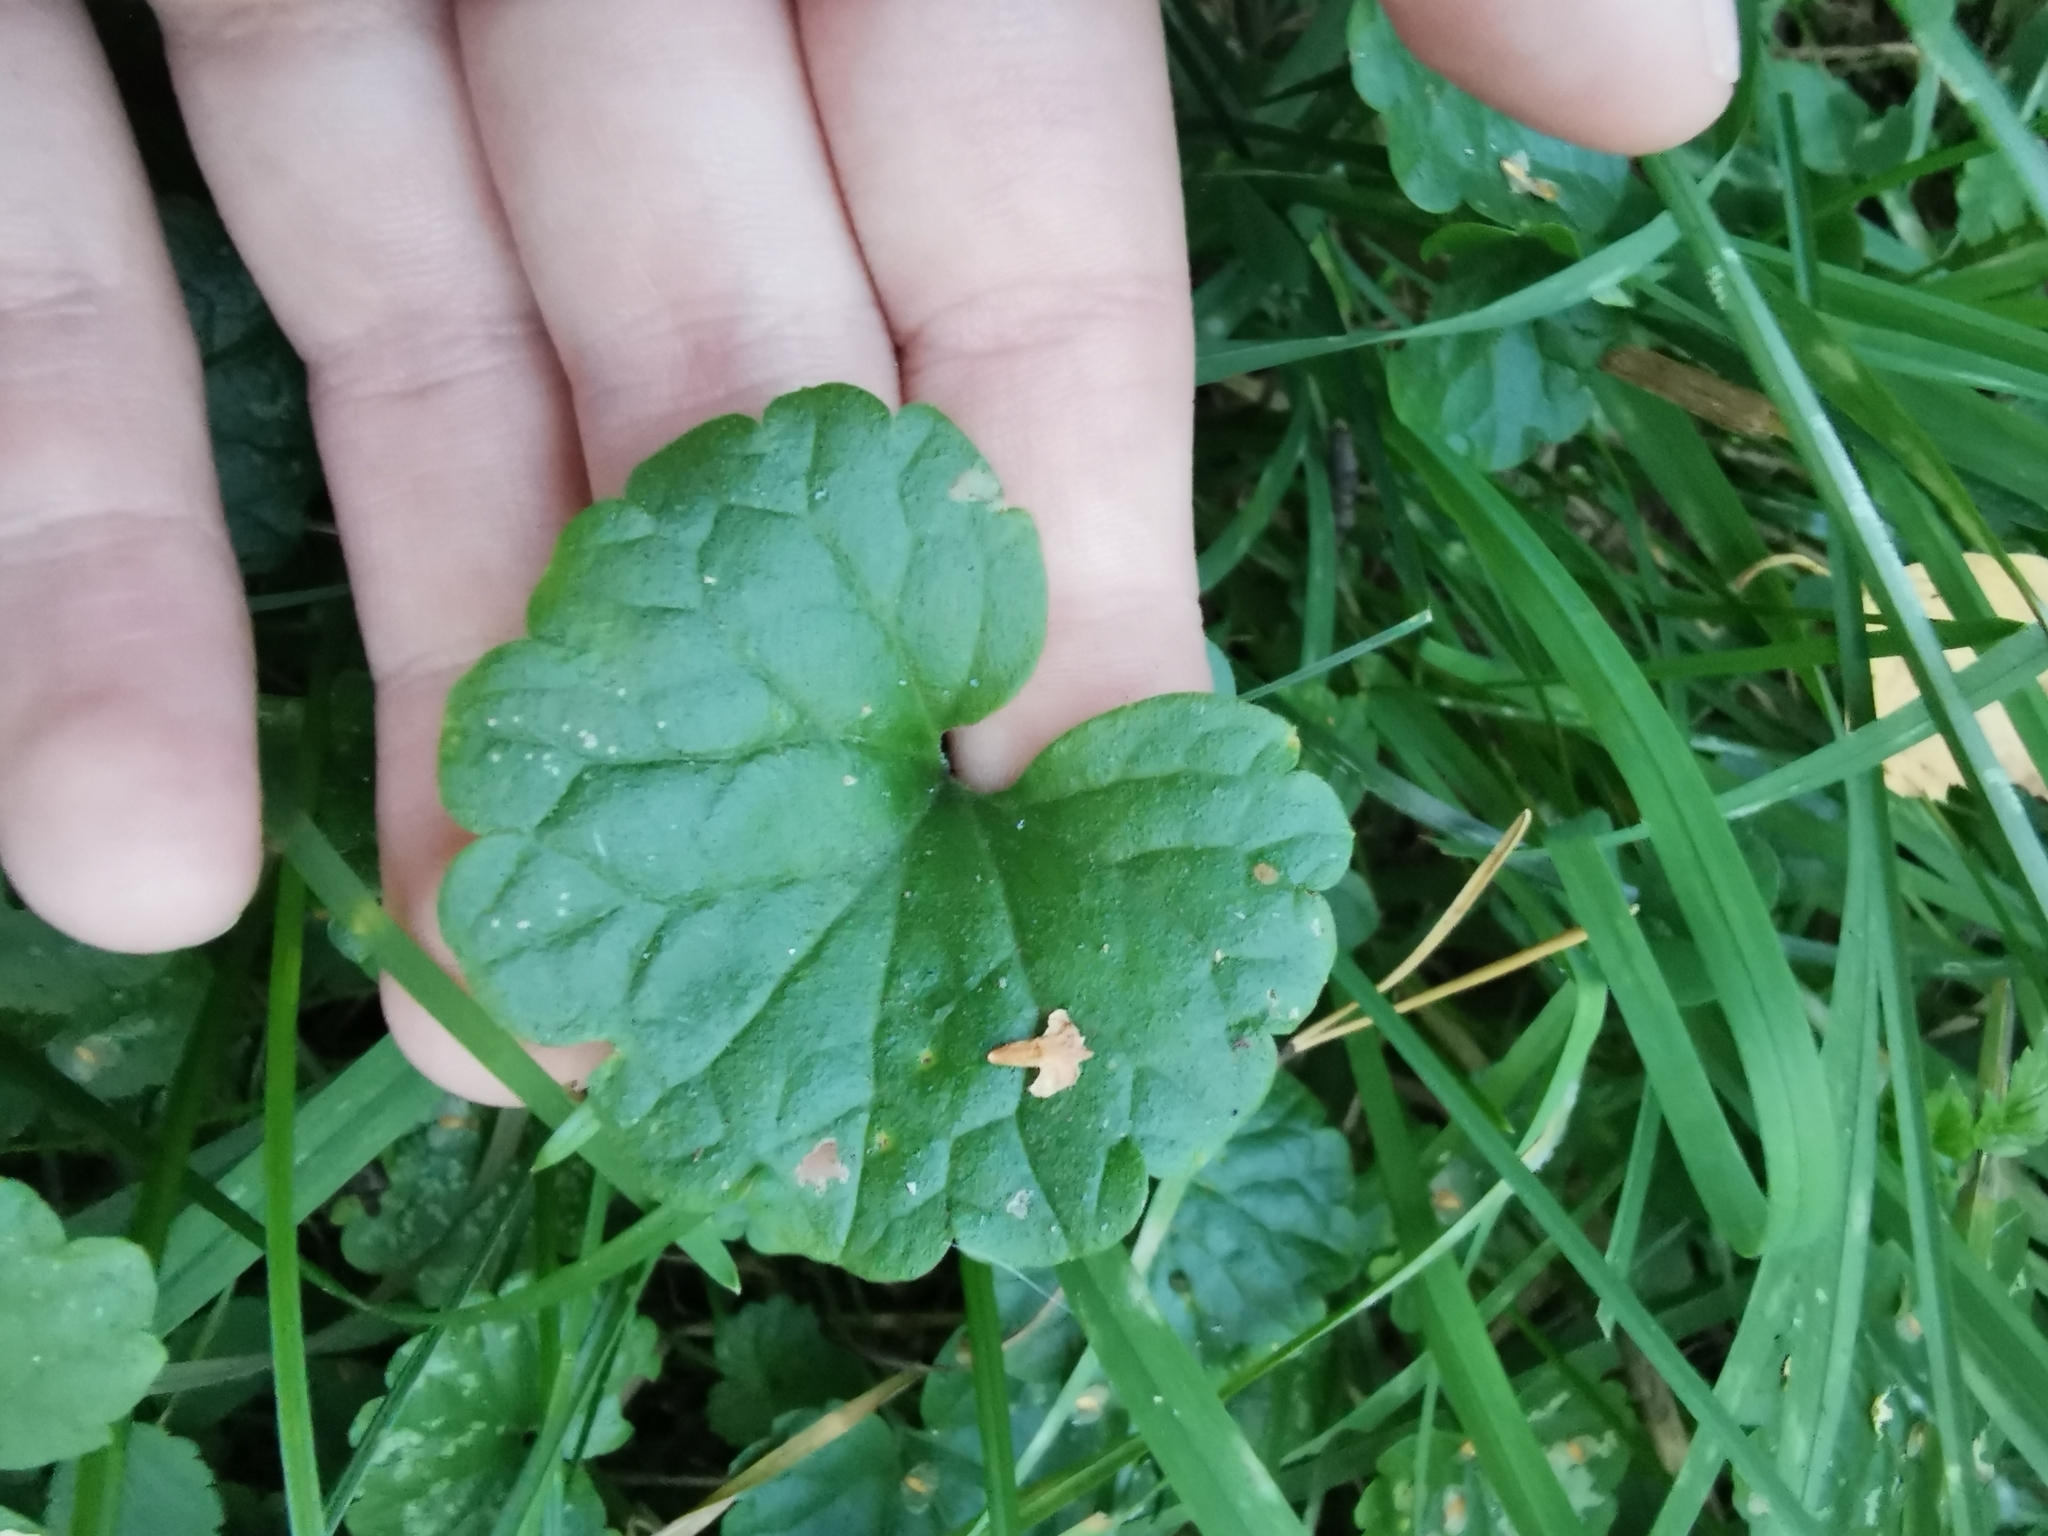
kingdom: Plantae
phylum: Tracheophyta
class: Magnoliopsida
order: Lamiales
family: Lamiaceae
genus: Glechoma
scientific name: Glechoma hederacea
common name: Ground ivy
